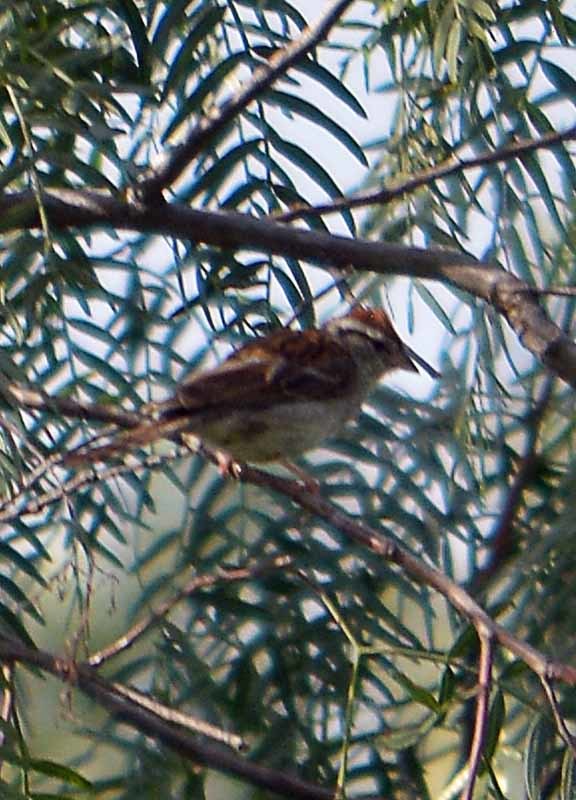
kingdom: Animalia
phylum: Chordata
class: Aves
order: Passeriformes
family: Passerellidae
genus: Spizella
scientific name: Spizella passerina
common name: Chipping sparrow
